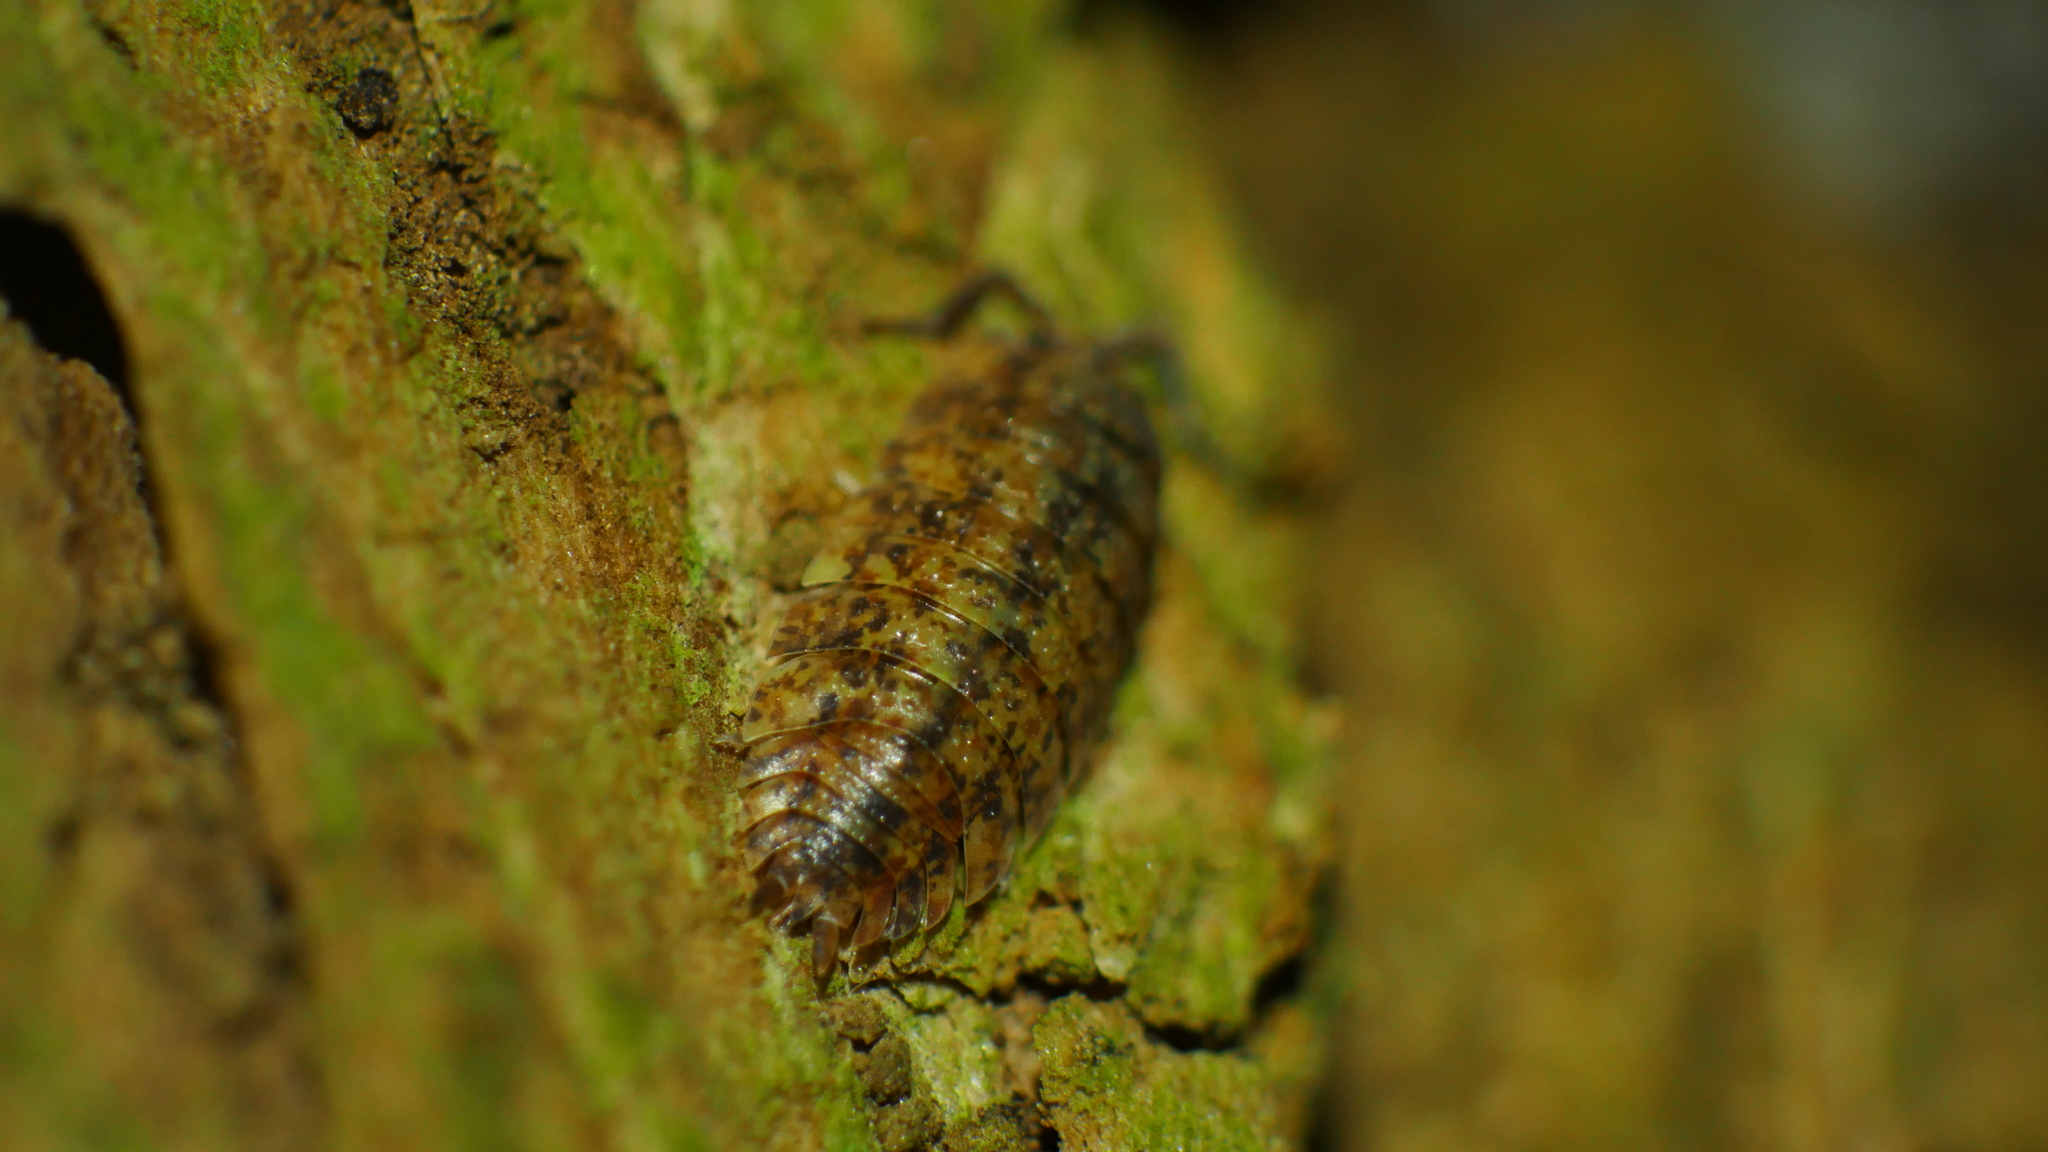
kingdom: Animalia
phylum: Arthropoda
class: Malacostraca
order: Isopoda
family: Porcellionidae
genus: Porcellio
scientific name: Porcellio scaber
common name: Common rough woodlouse
